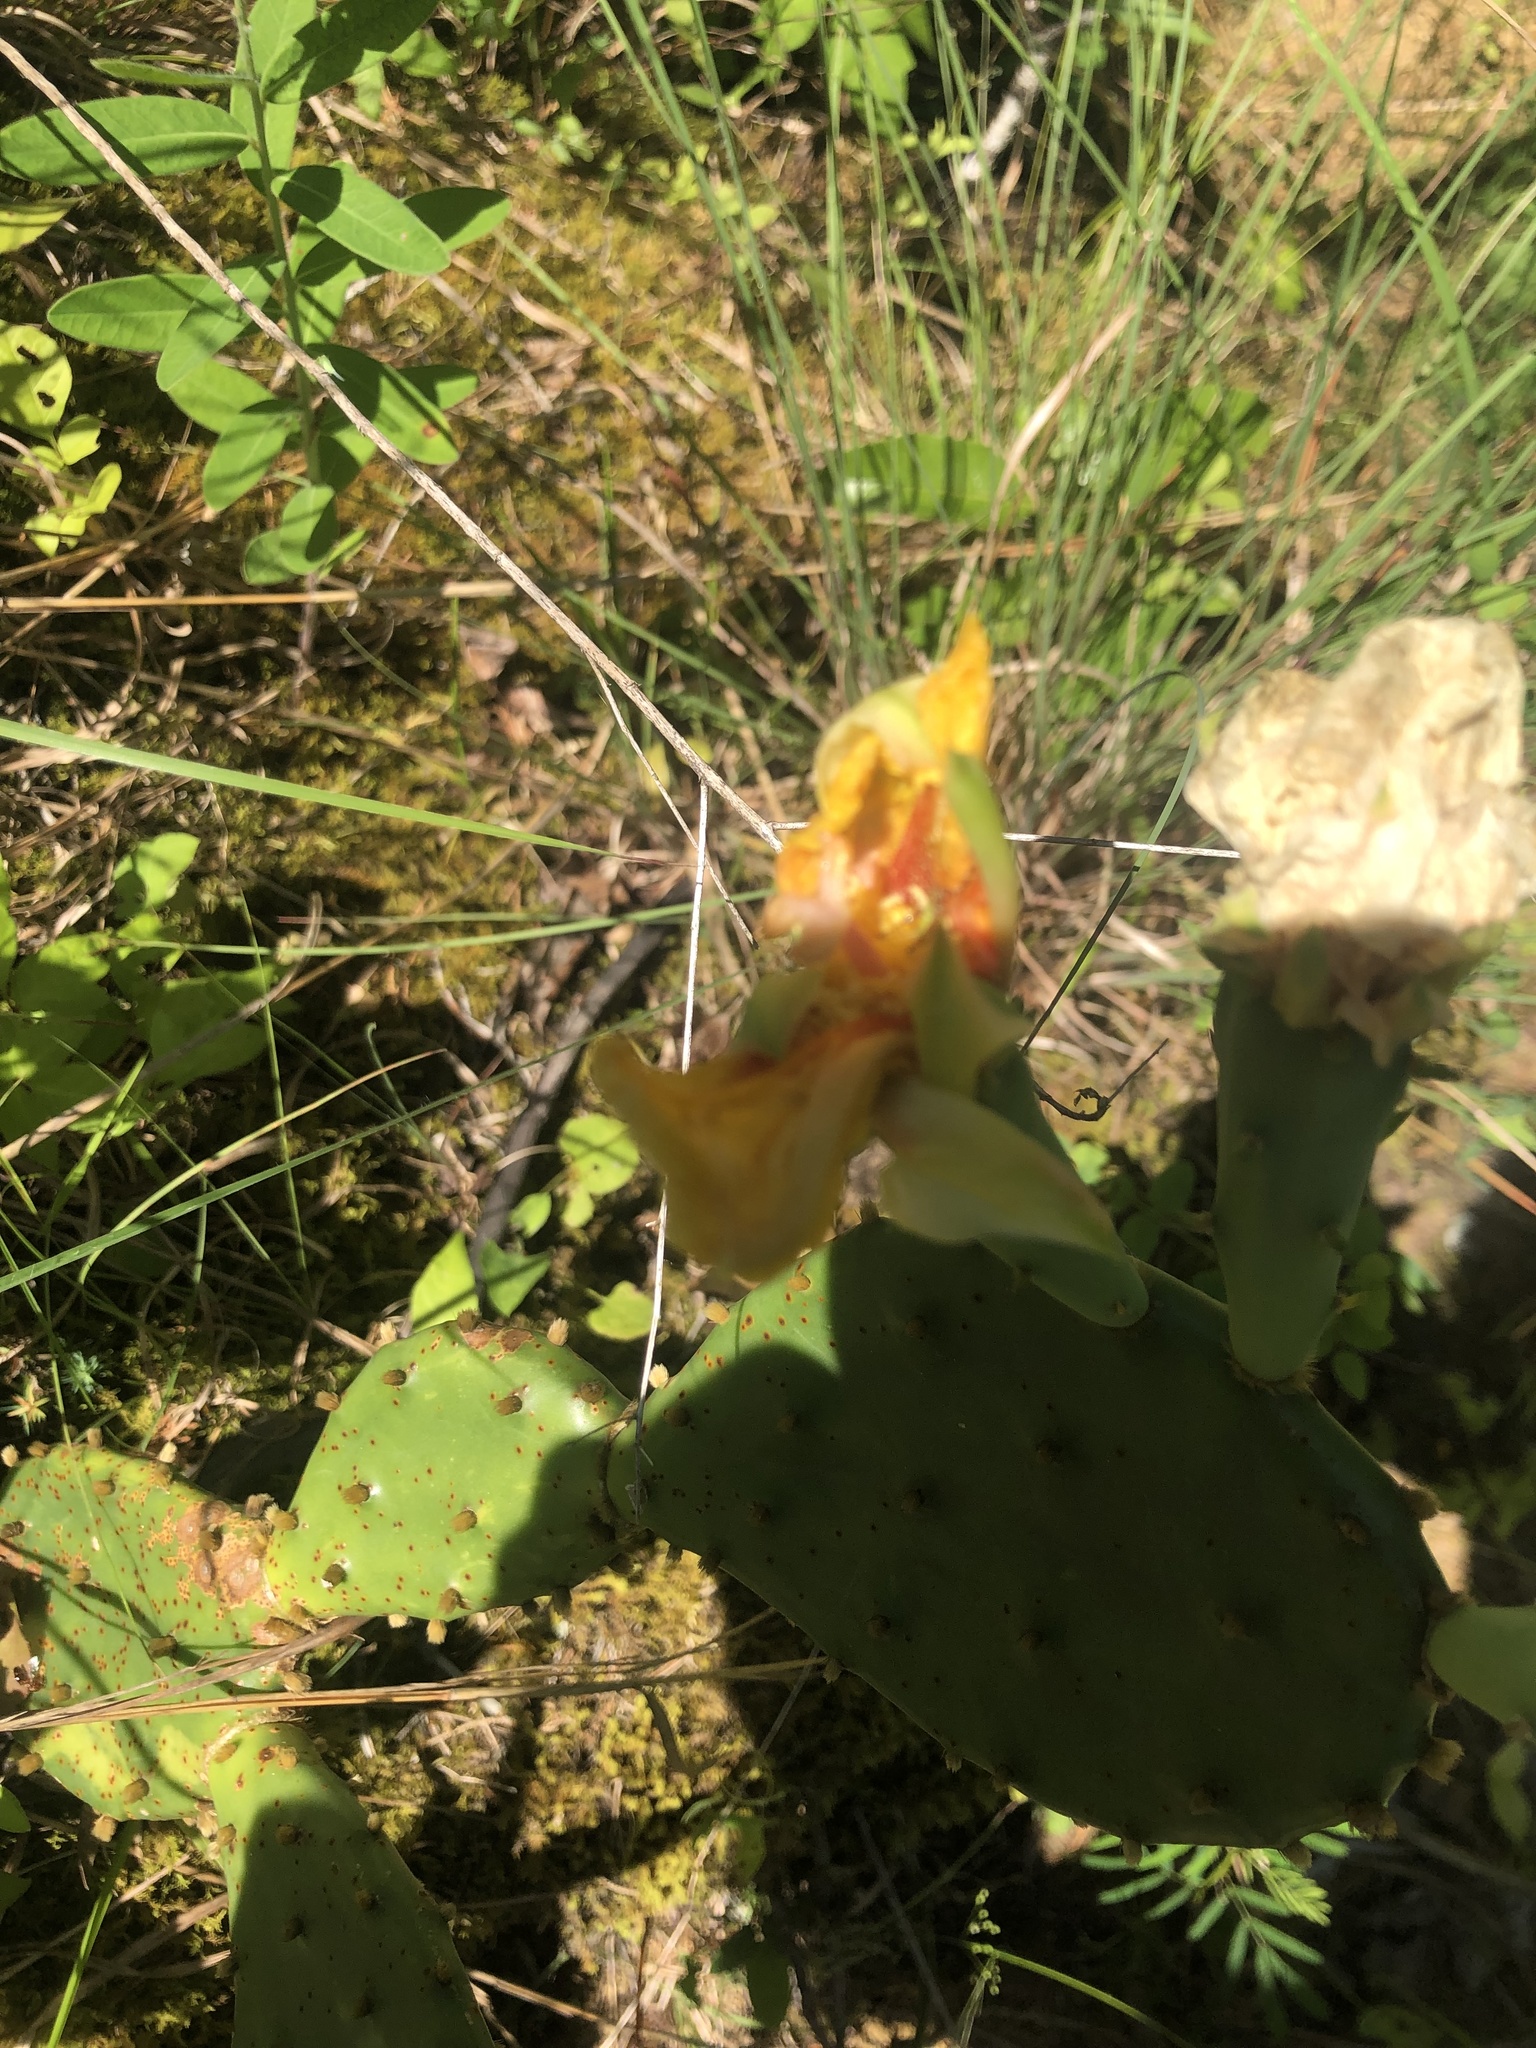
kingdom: Plantae
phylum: Tracheophyta
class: Magnoliopsida
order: Caryophyllales
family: Cactaceae
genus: Opuntia
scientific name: Opuntia humifusa
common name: Eastern prickly-pear
